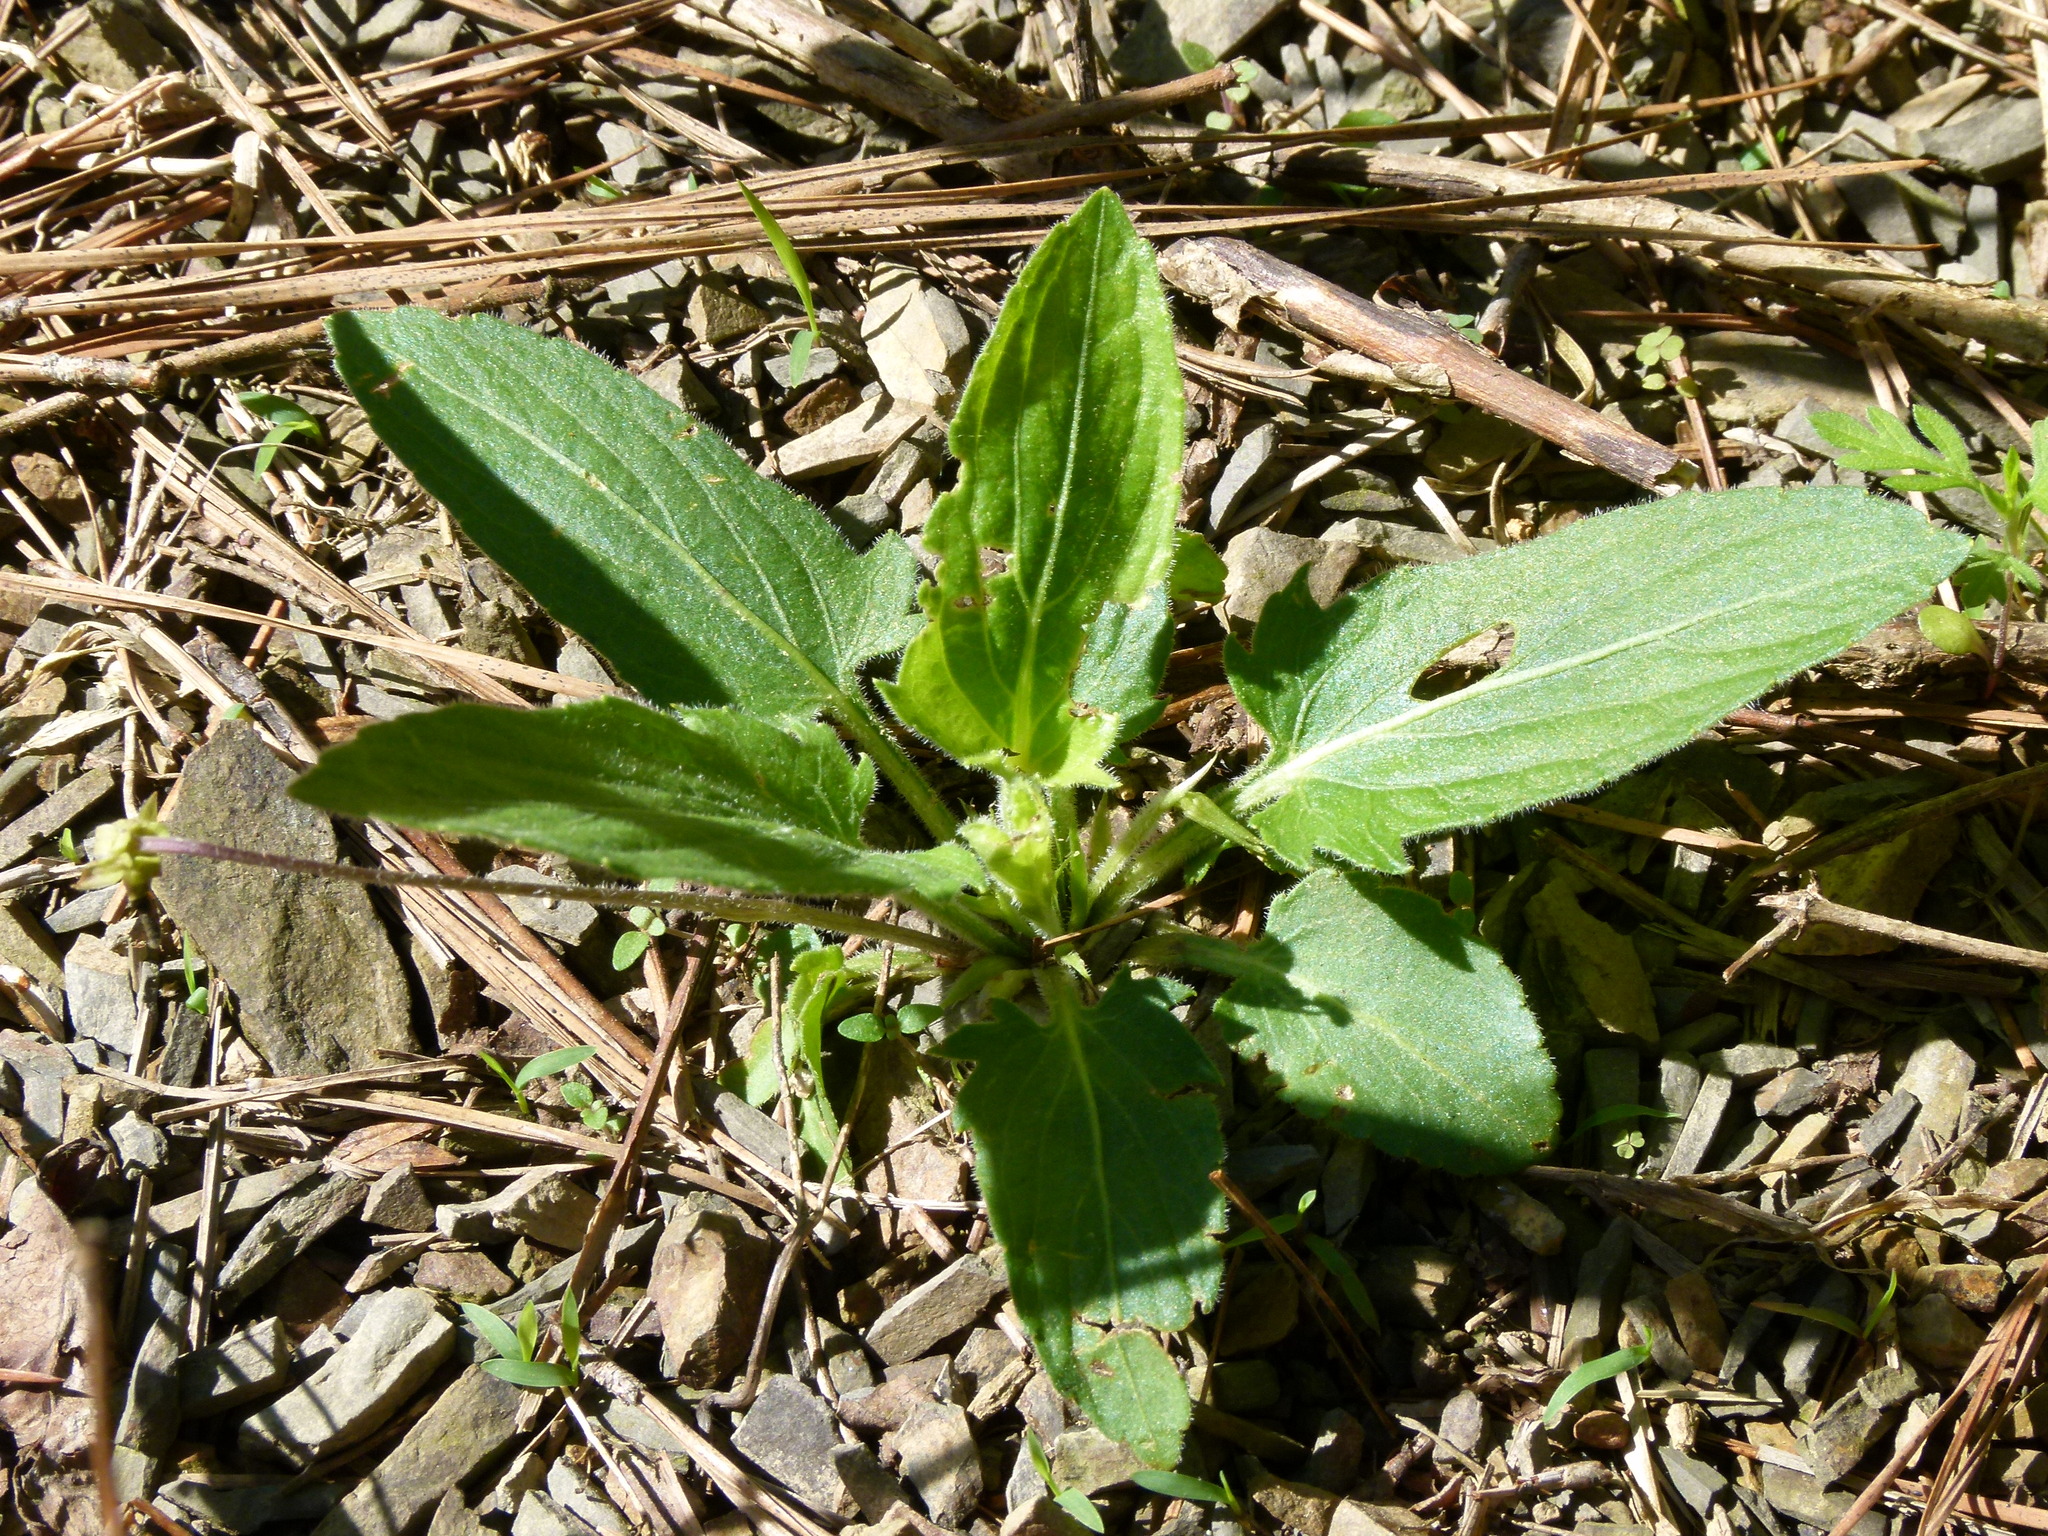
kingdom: Plantae
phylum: Tracheophyta
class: Magnoliopsida
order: Malpighiales
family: Violaceae
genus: Viola
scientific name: Viola sagittata
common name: Arrowhead violet
